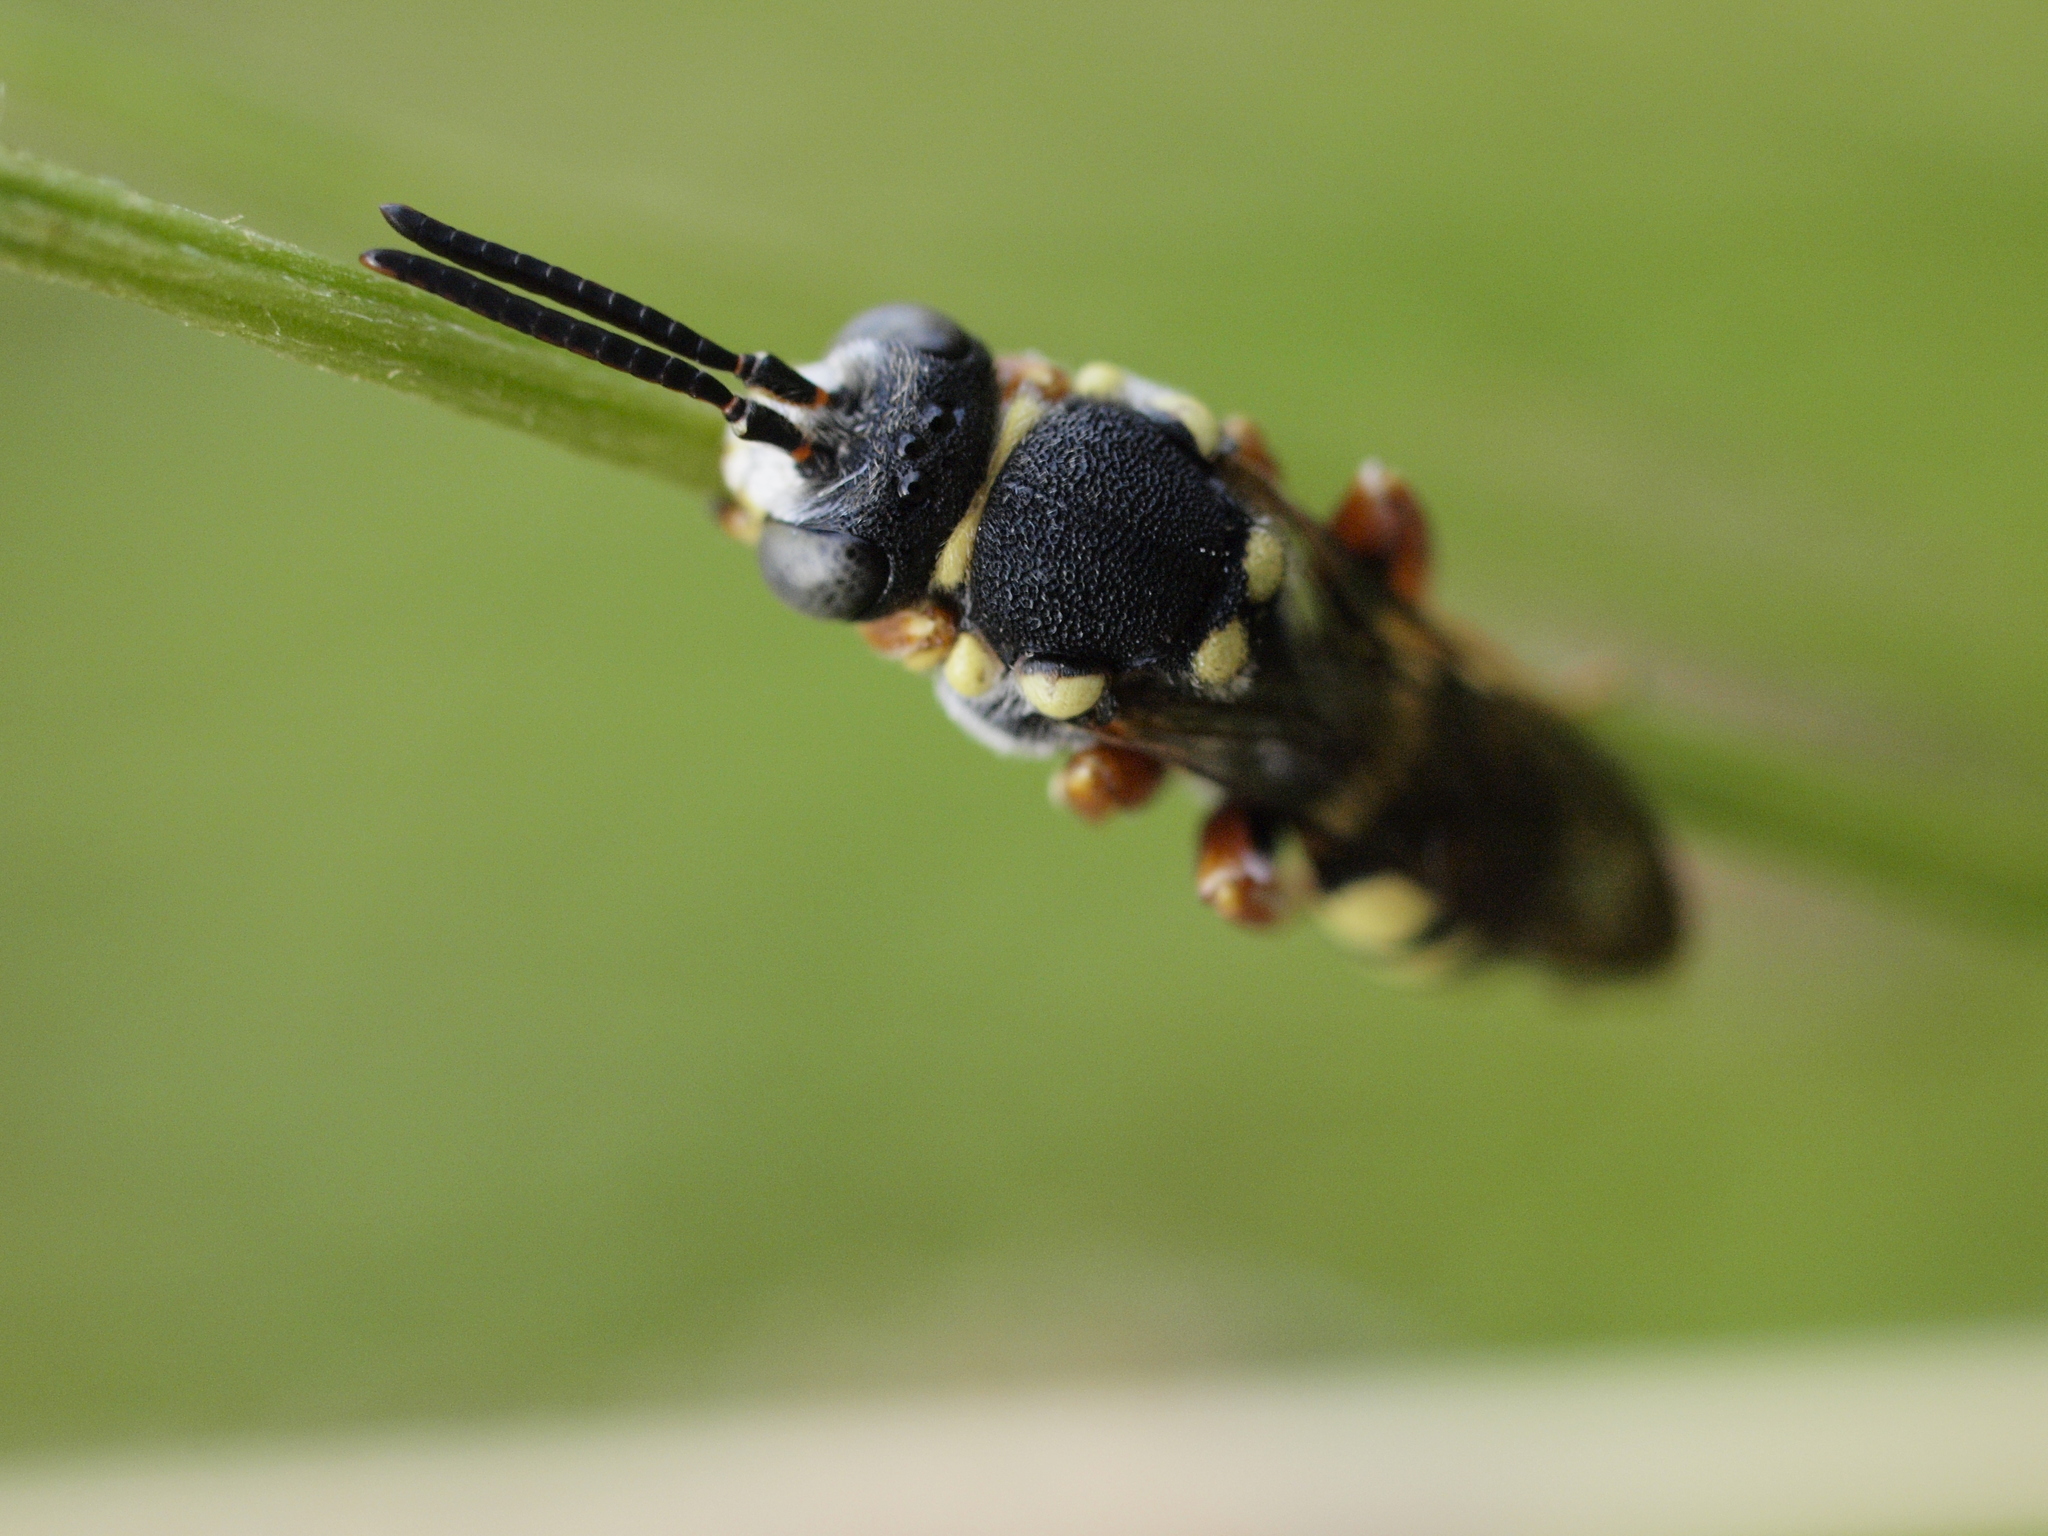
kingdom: Animalia
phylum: Arthropoda
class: Insecta
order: Hymenoptera
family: Apidae
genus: Nomada
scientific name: Nomada flavopicta
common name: Blunthorn nomad bee
